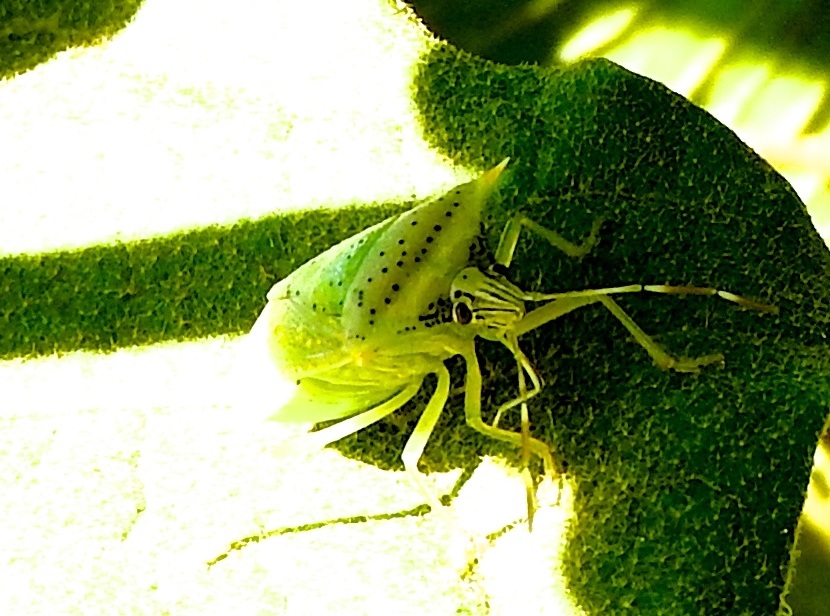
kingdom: Animalia
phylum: Arthropoda
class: Insecta
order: Hemiptera
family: Pentatomidae
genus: Arvelius
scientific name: Arvelius
